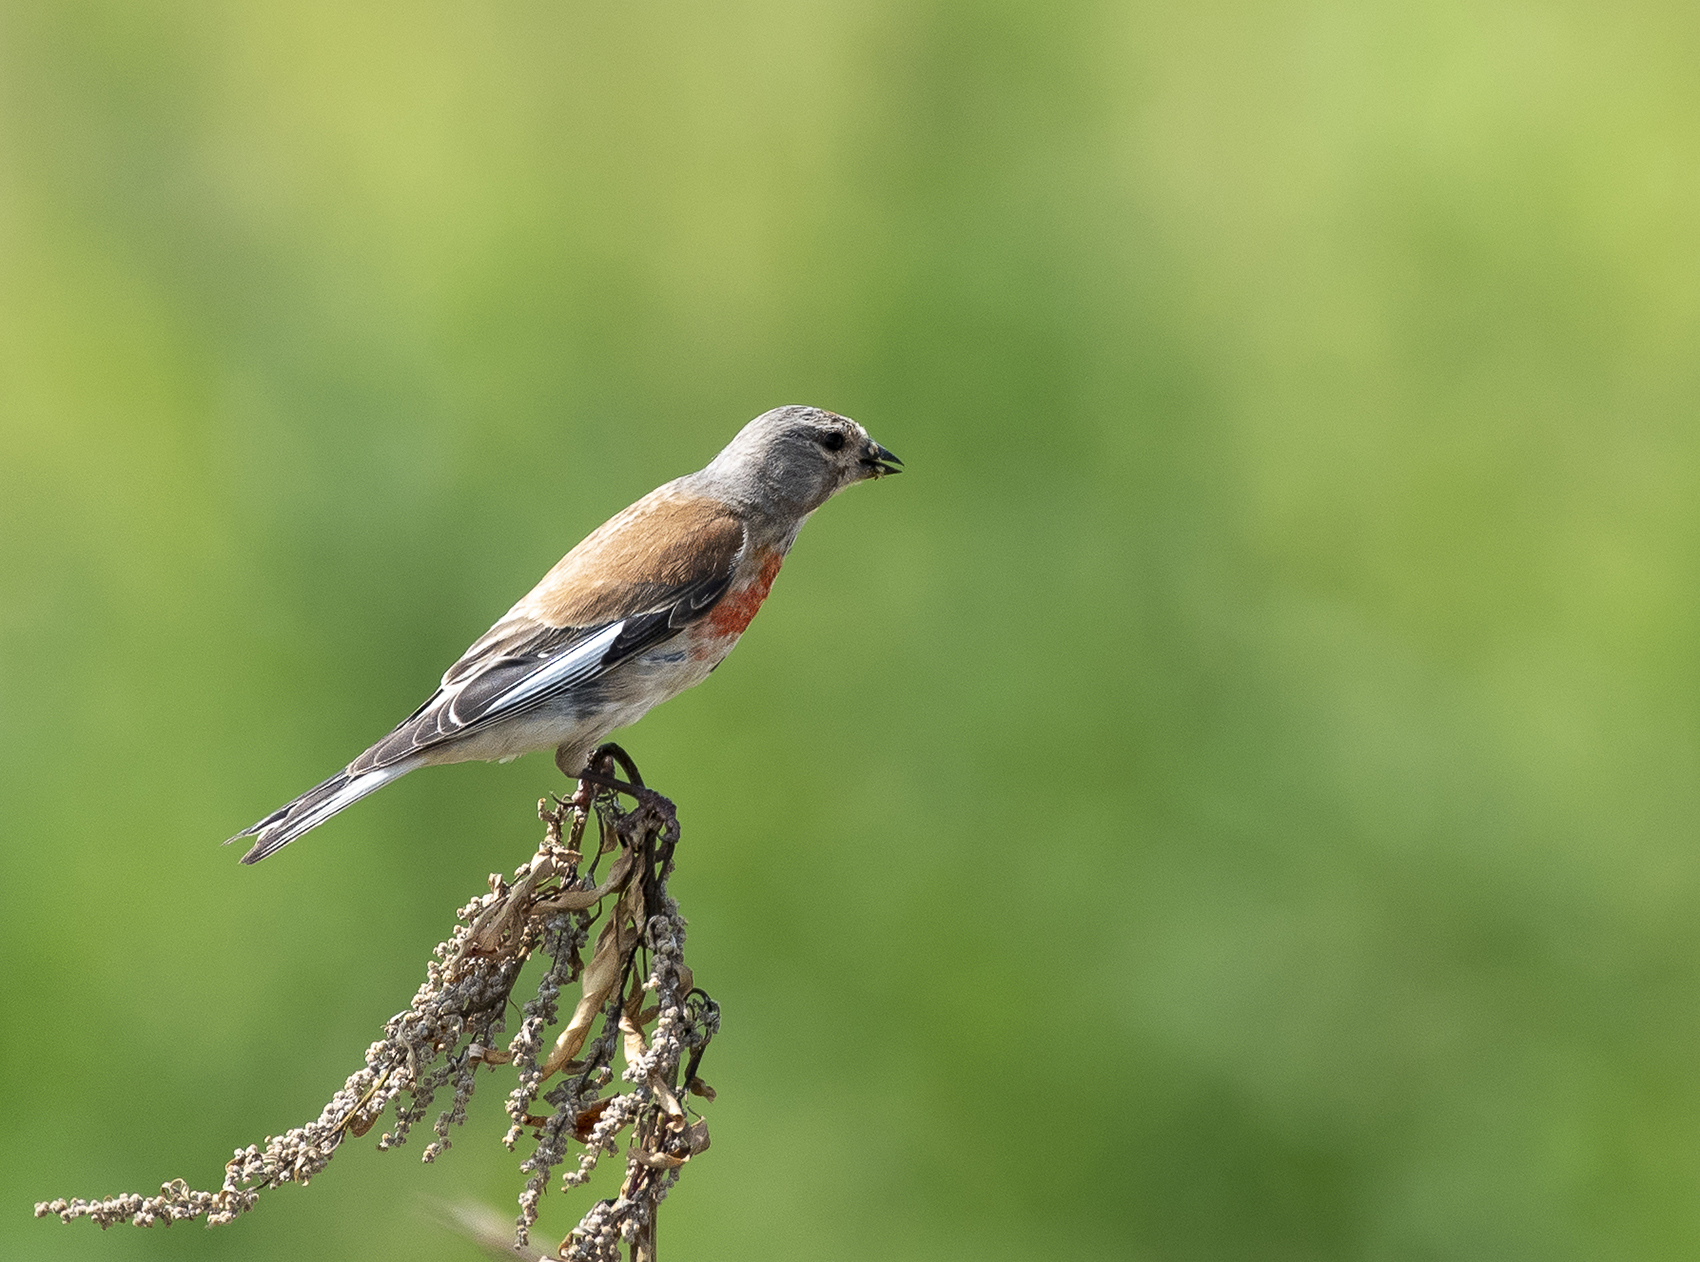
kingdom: Animalia
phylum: Chordata
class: Aves
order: Passeriformes
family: Fringillidae
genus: Linaria
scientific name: Linaria cannabina
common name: Common linnet
